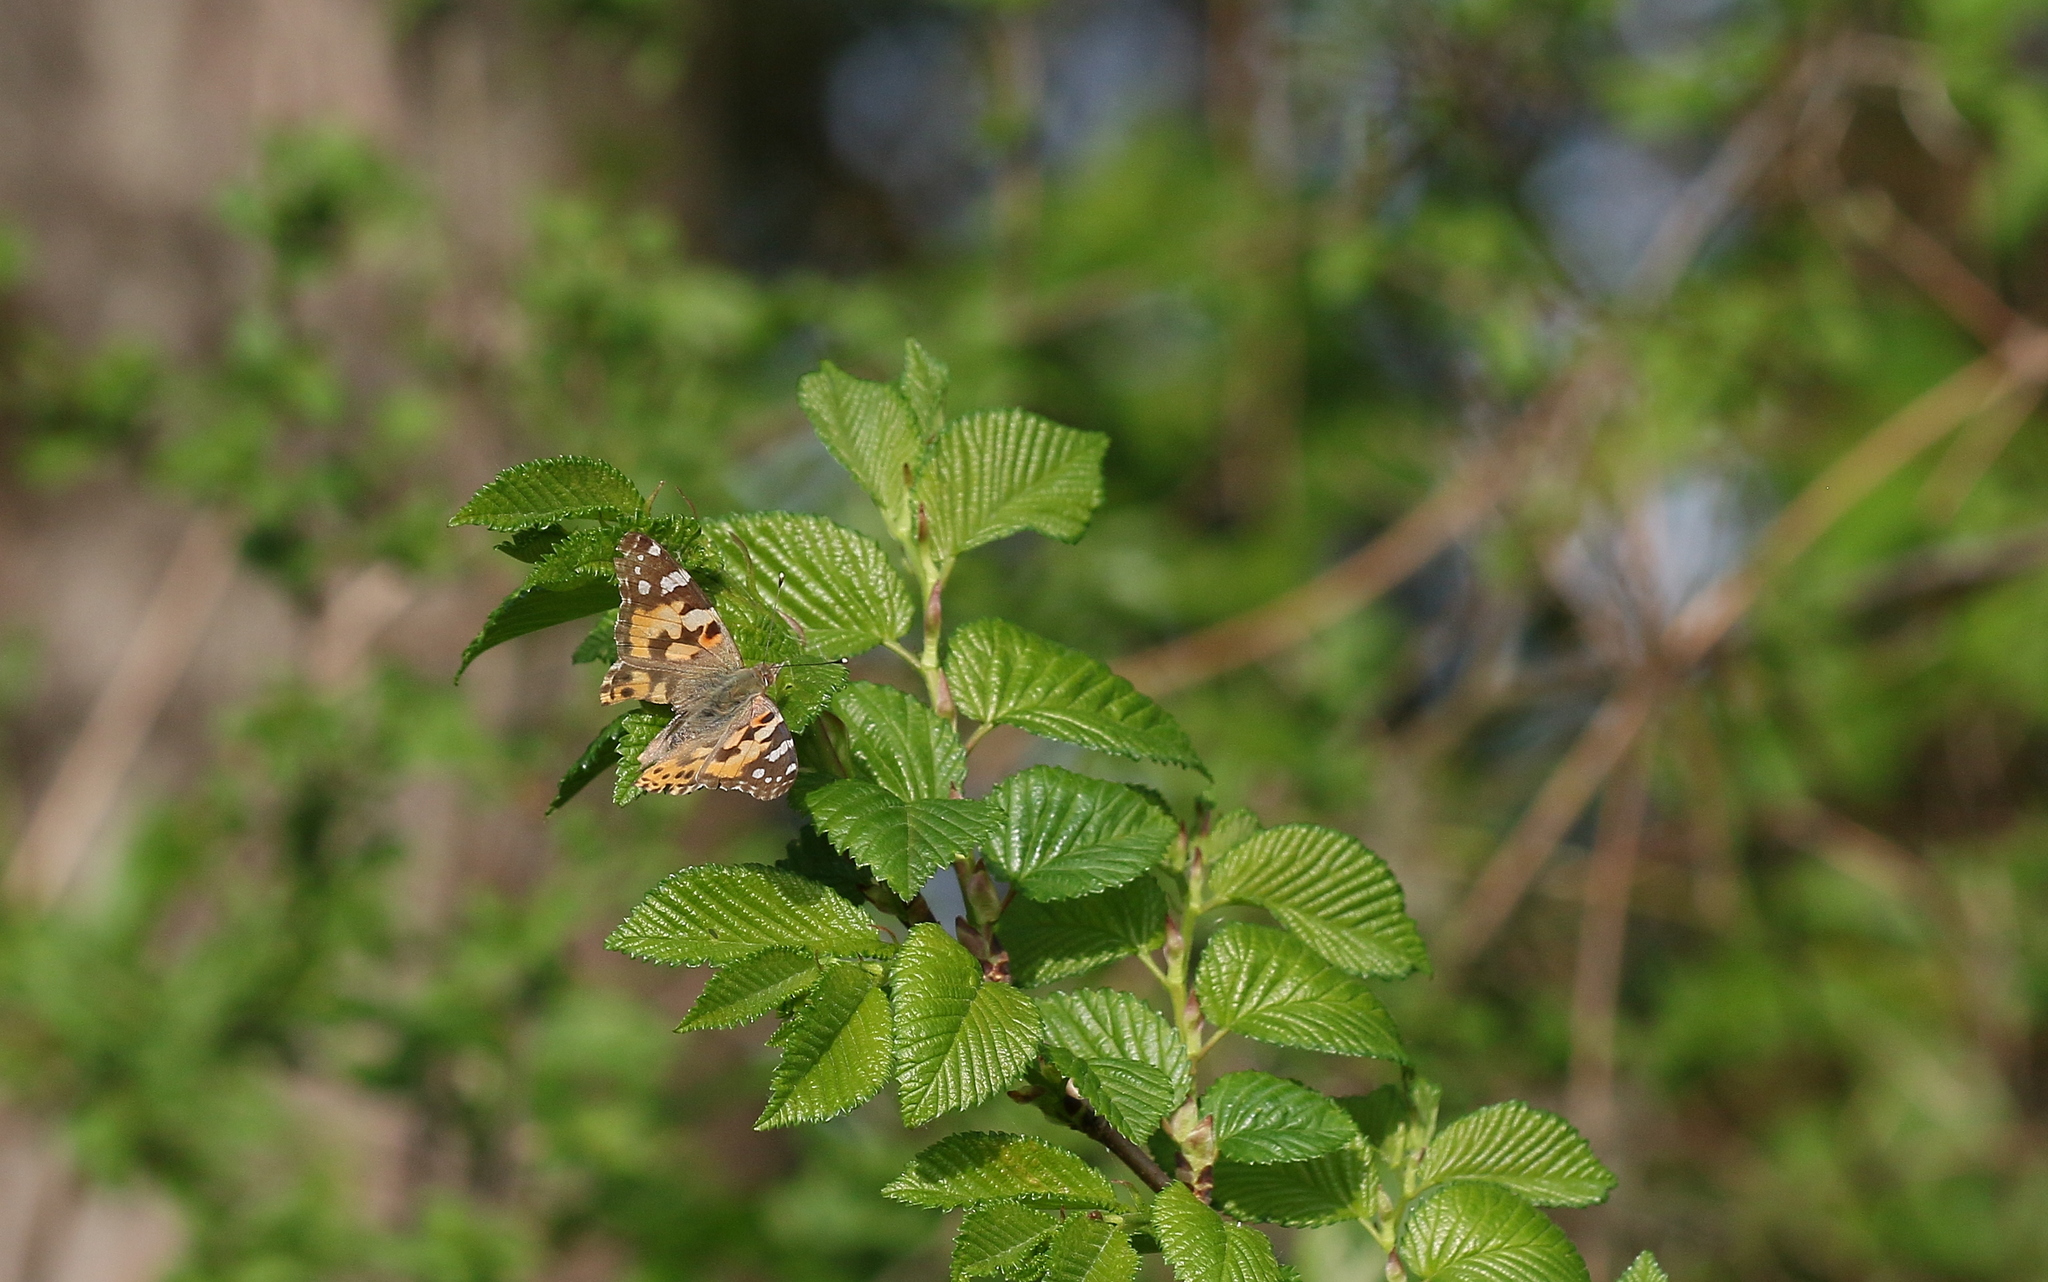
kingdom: Animalia
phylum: Arthropoda
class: Insecta
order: Lepidoptera
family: Nymphalidae
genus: Vanessa
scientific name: Vanessa cardui
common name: Painted lady
